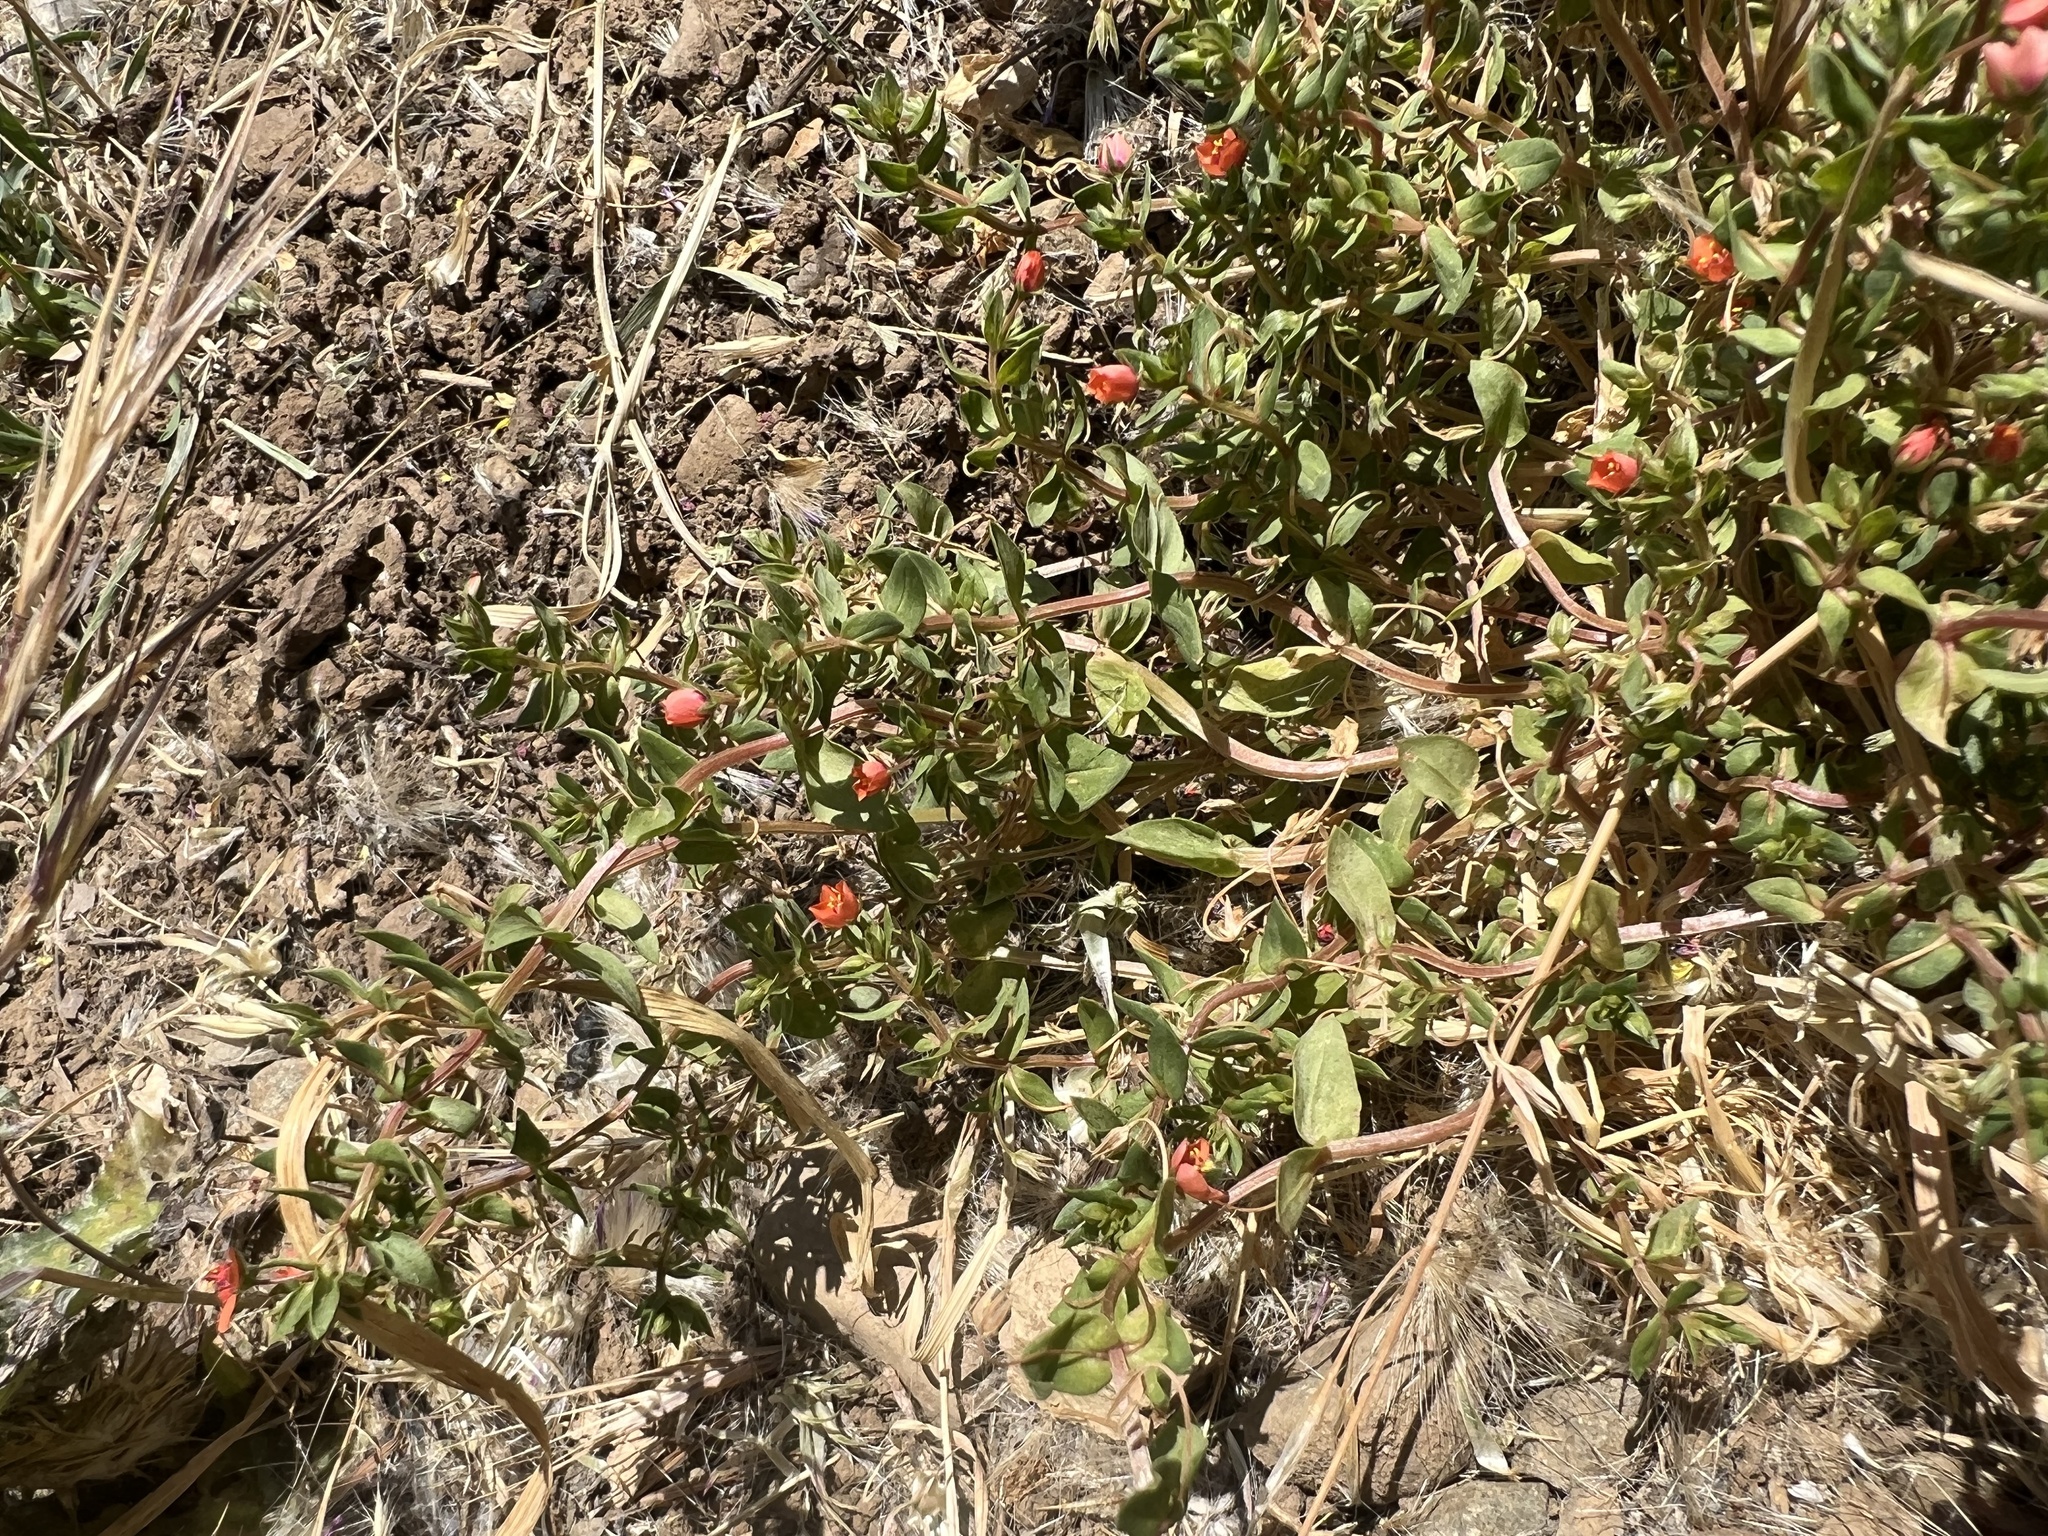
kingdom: Plantae
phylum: Tracheophyta
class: Magnoliopsida
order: Ericales
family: Primulaceae
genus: Lysimachia
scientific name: Lysimachia arvensis
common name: Scarlet pimpernel
